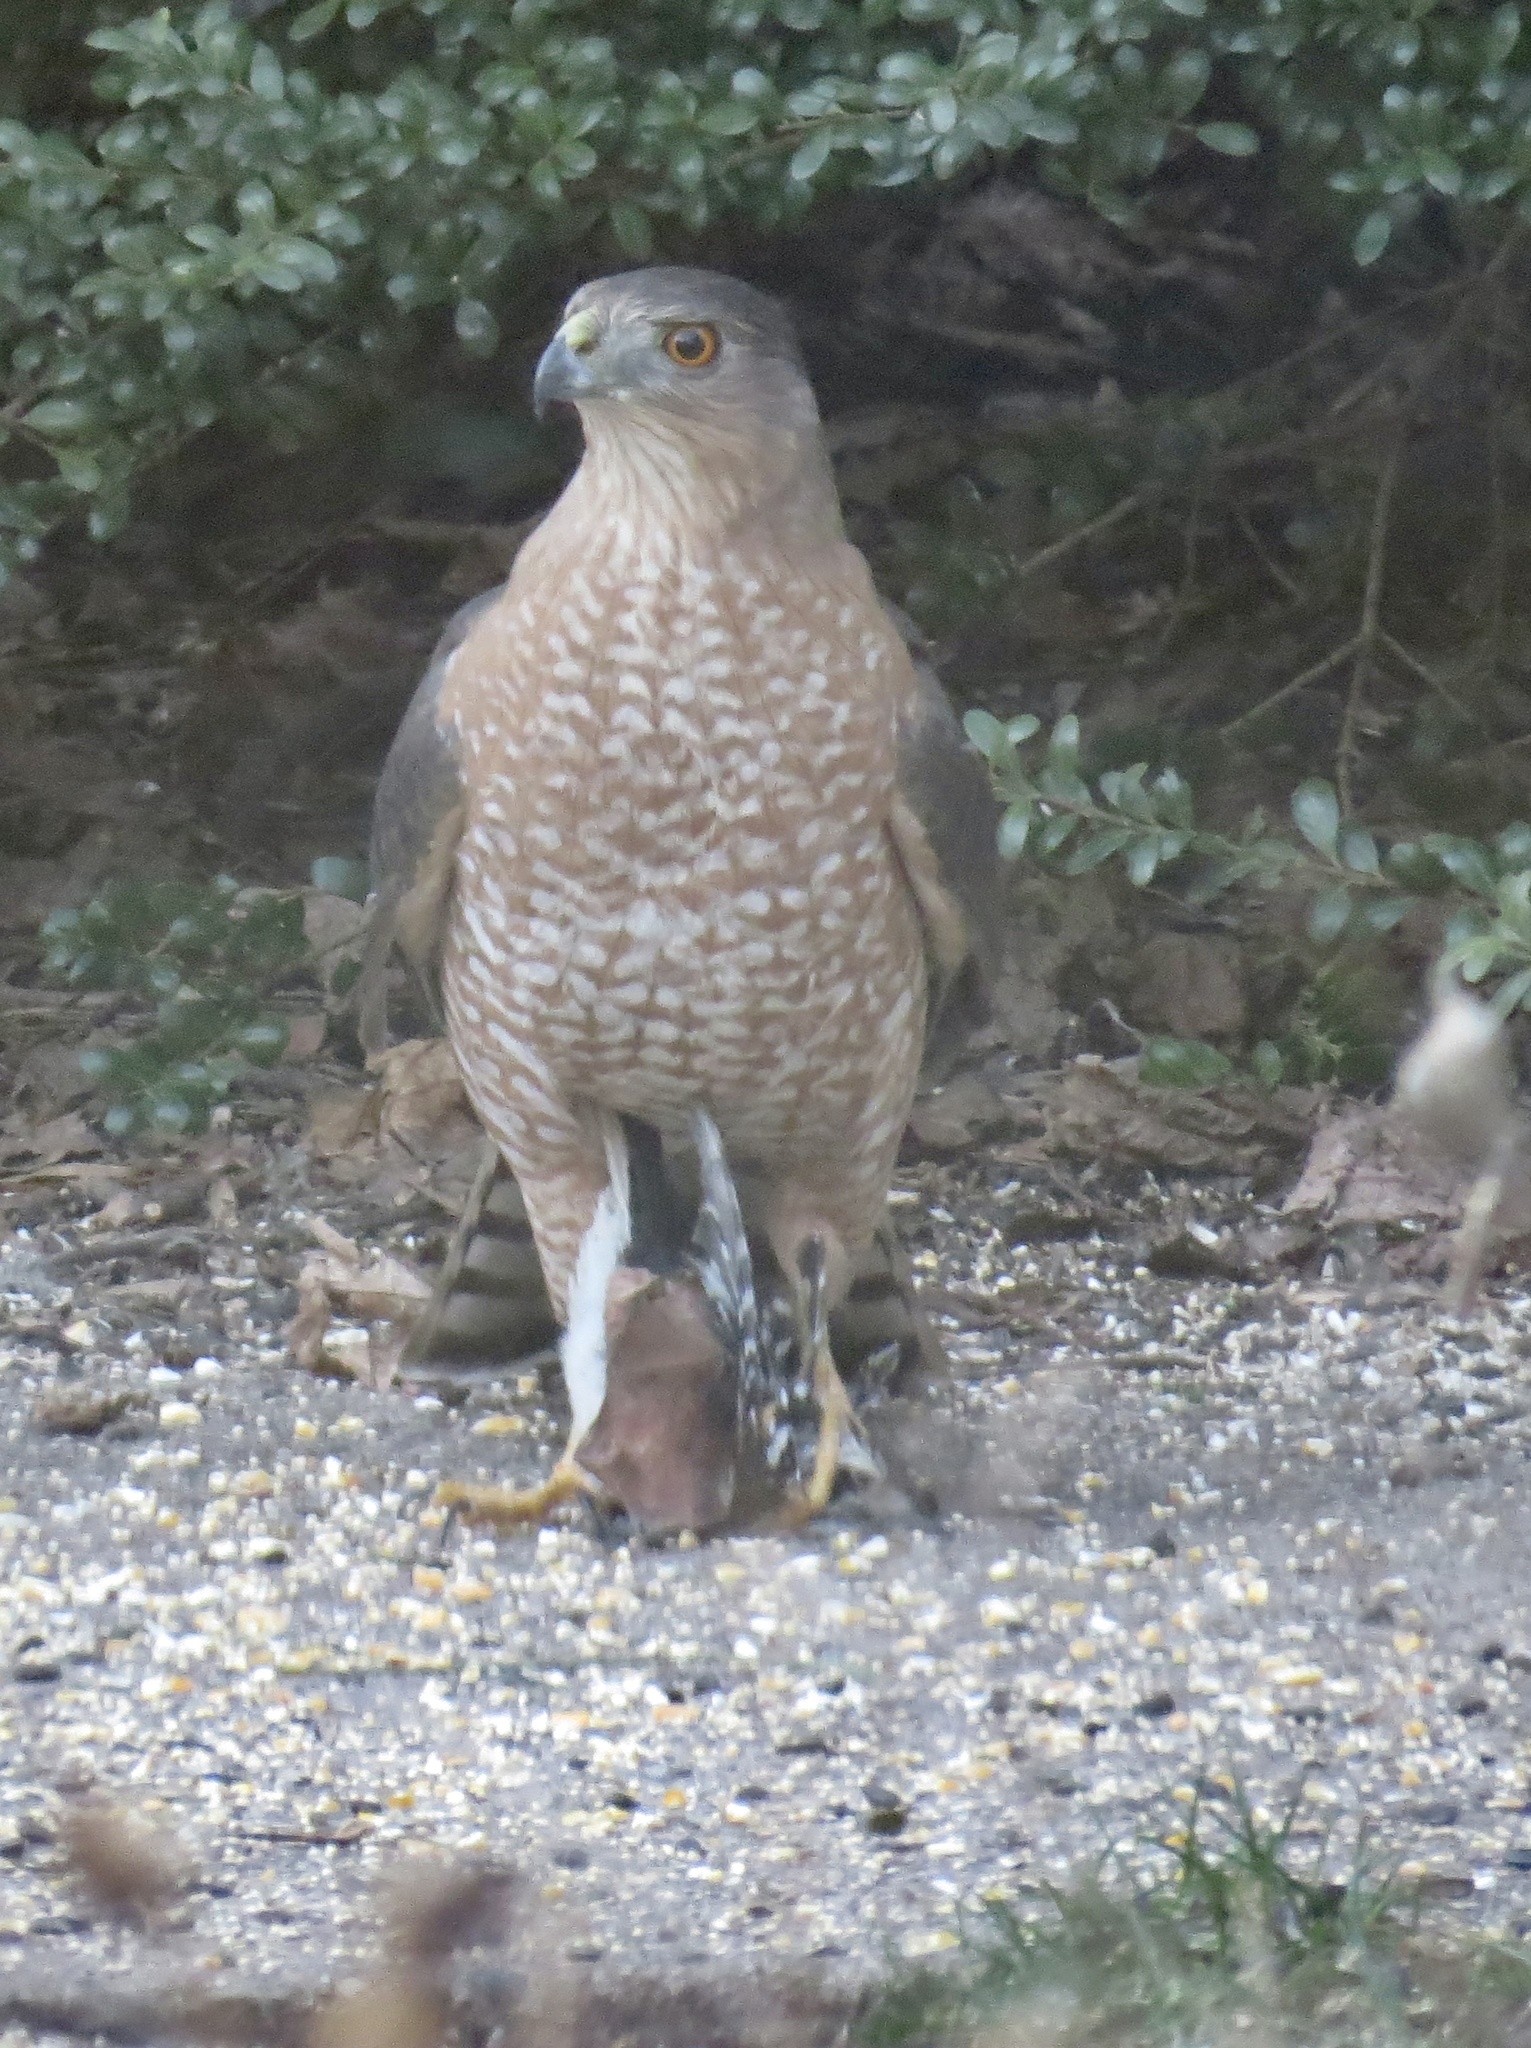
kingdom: Animalia
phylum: Chordata
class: Aves
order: Accipitriformes
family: Accipitridae
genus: Accipiter
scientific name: Accipiter cooperii
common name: Cooper's hawk
